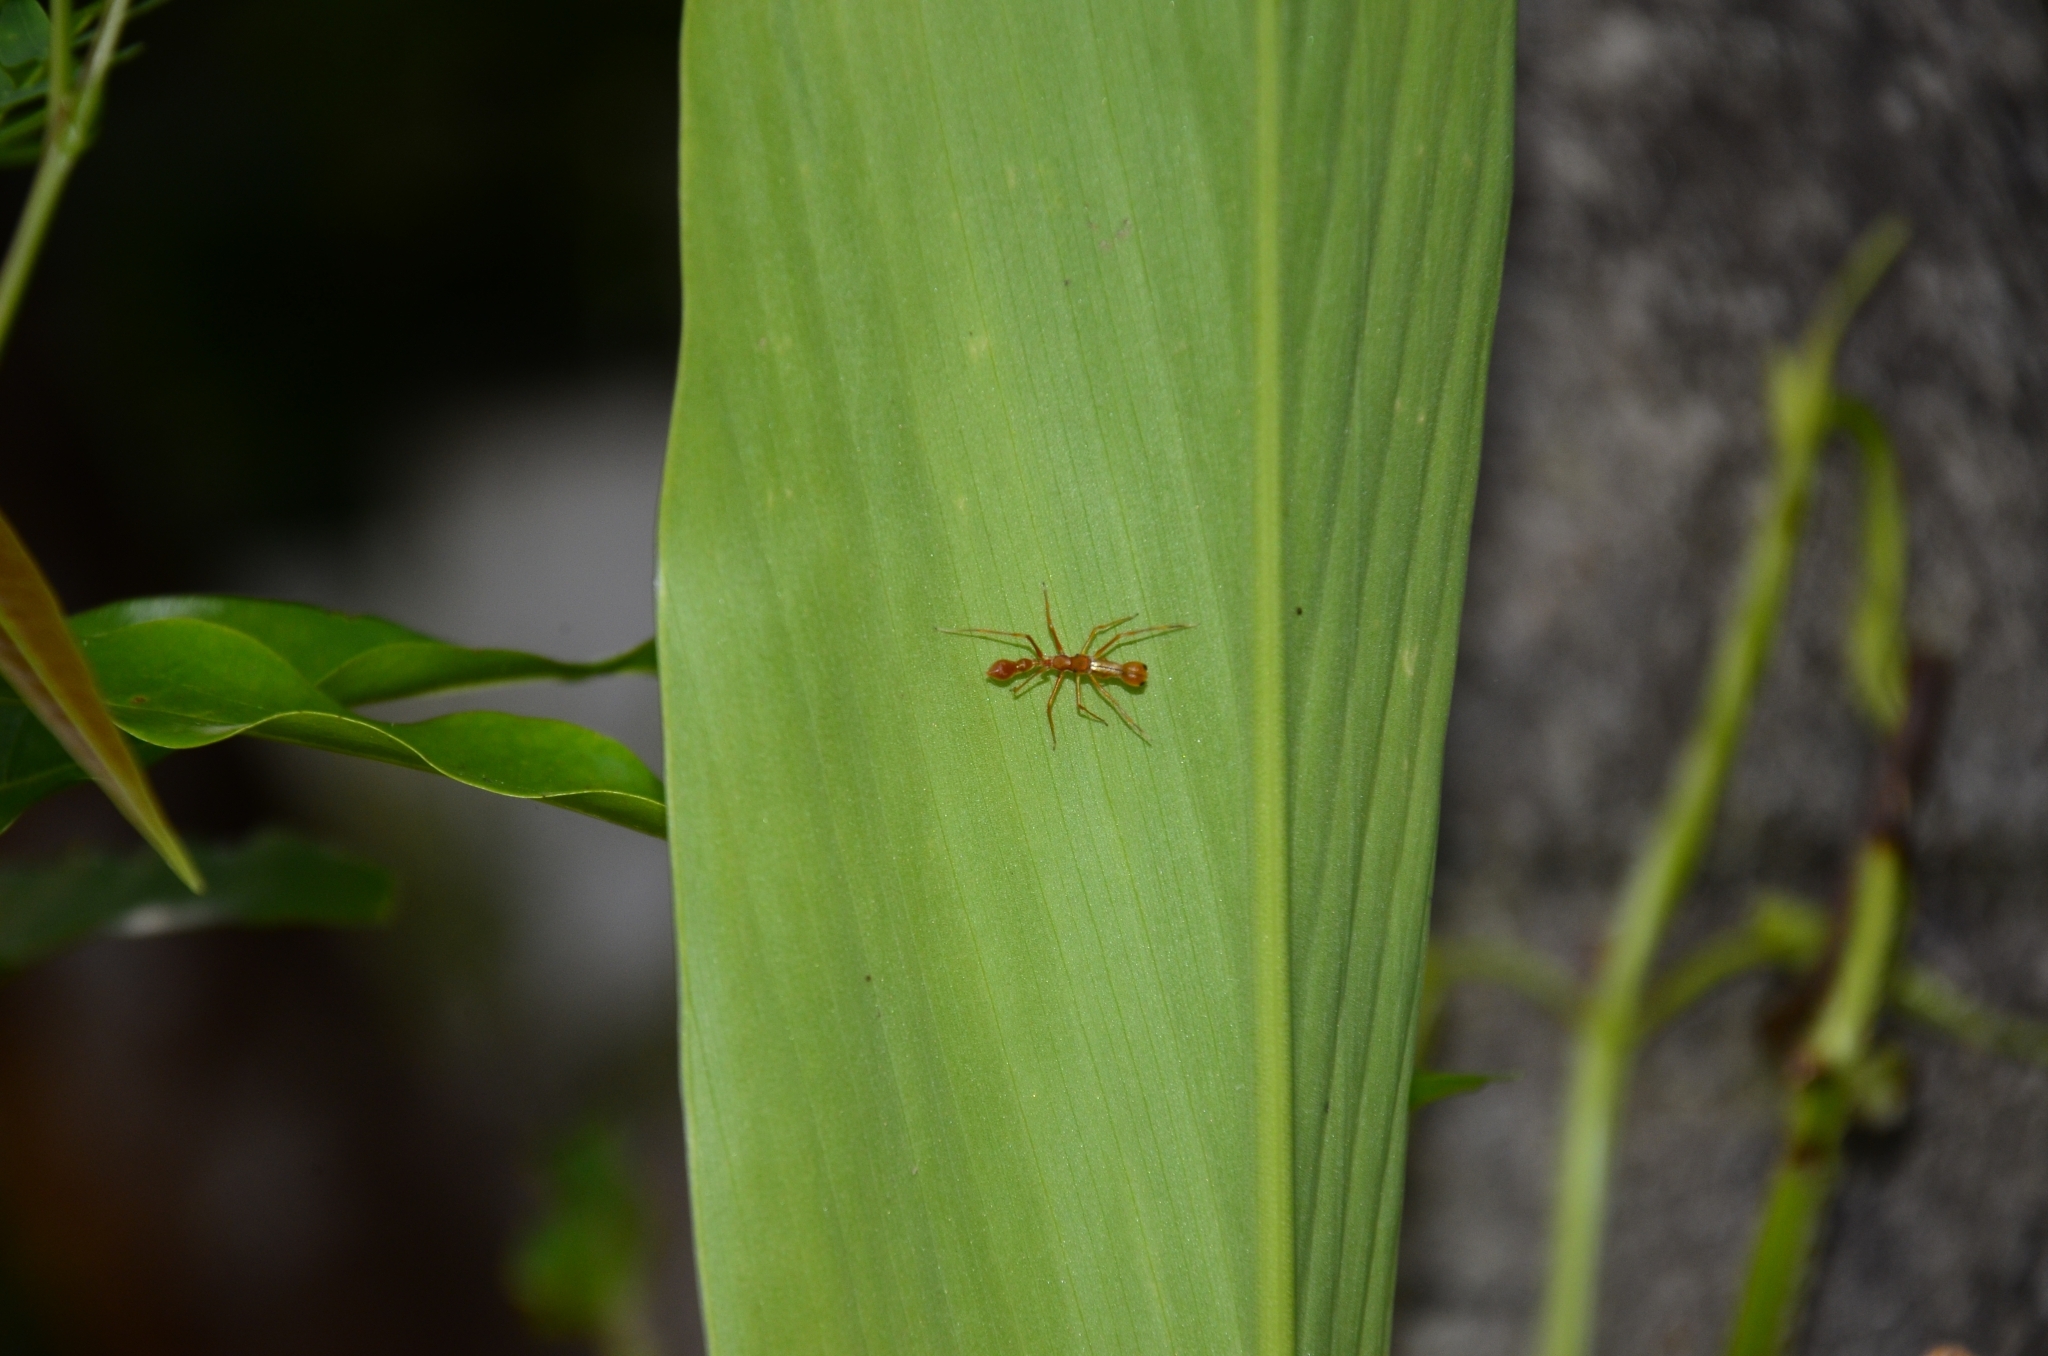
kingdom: Animalia
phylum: Arthropoda
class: Arachnida
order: Araneae
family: Salticidae
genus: Myrmaplata
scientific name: Myrmaplata plataleoides
